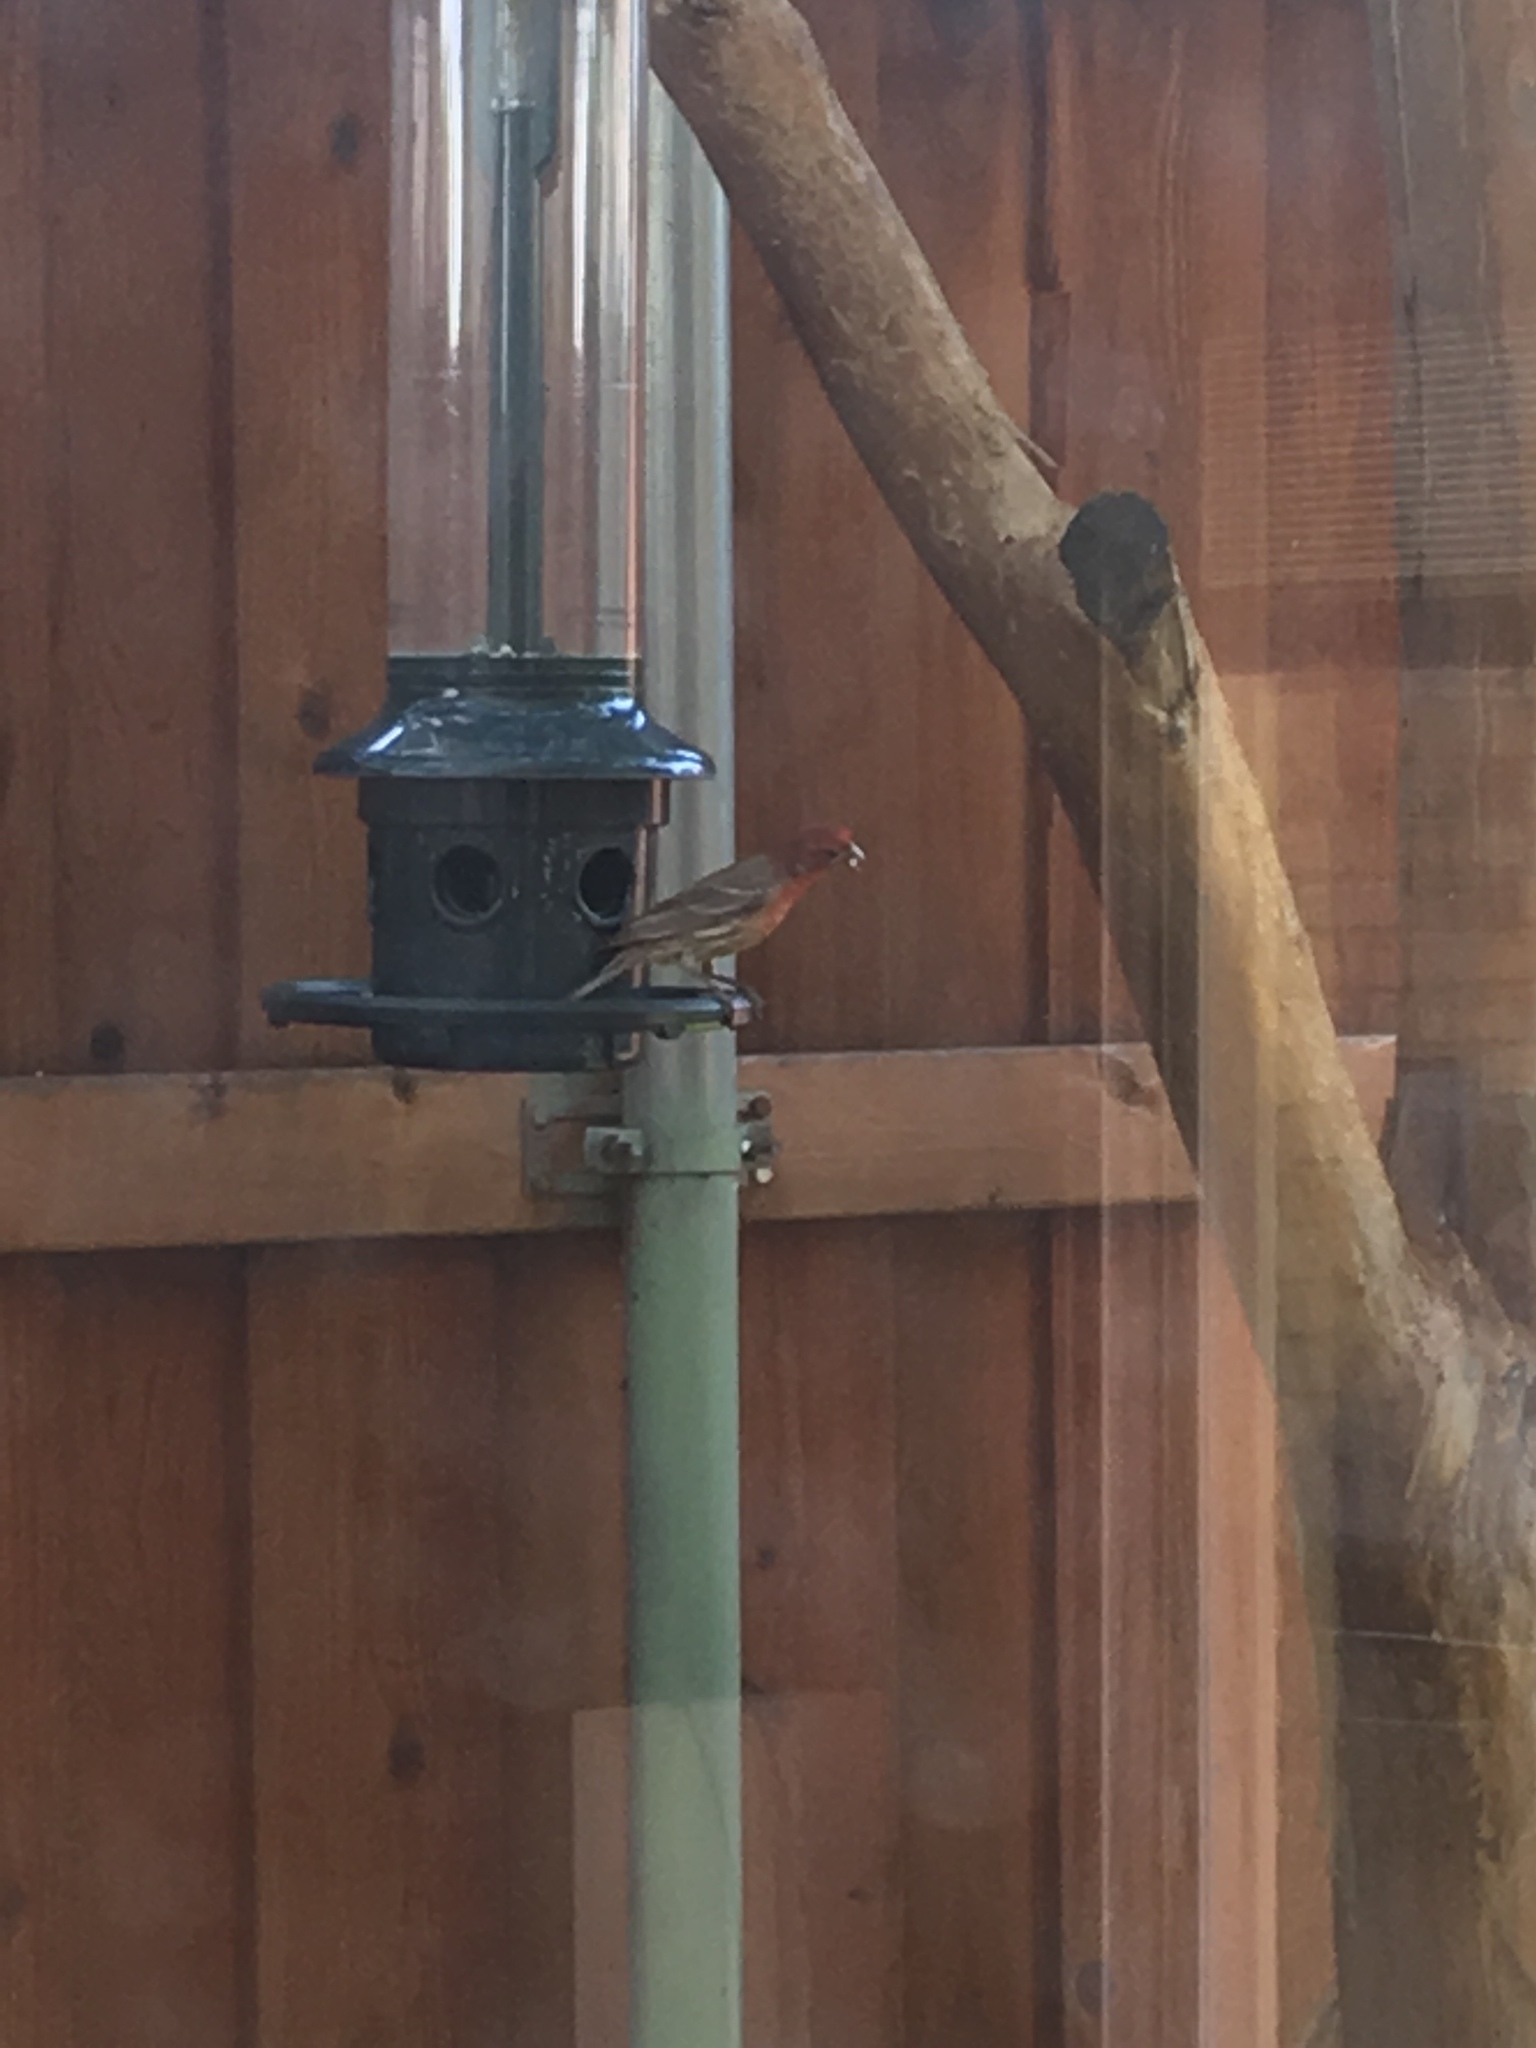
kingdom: Animalia
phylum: Chordata
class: Aves
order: Passeriformes
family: Fringillidae
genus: Haemorhous
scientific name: Haemorhous mexicanus
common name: House finch
